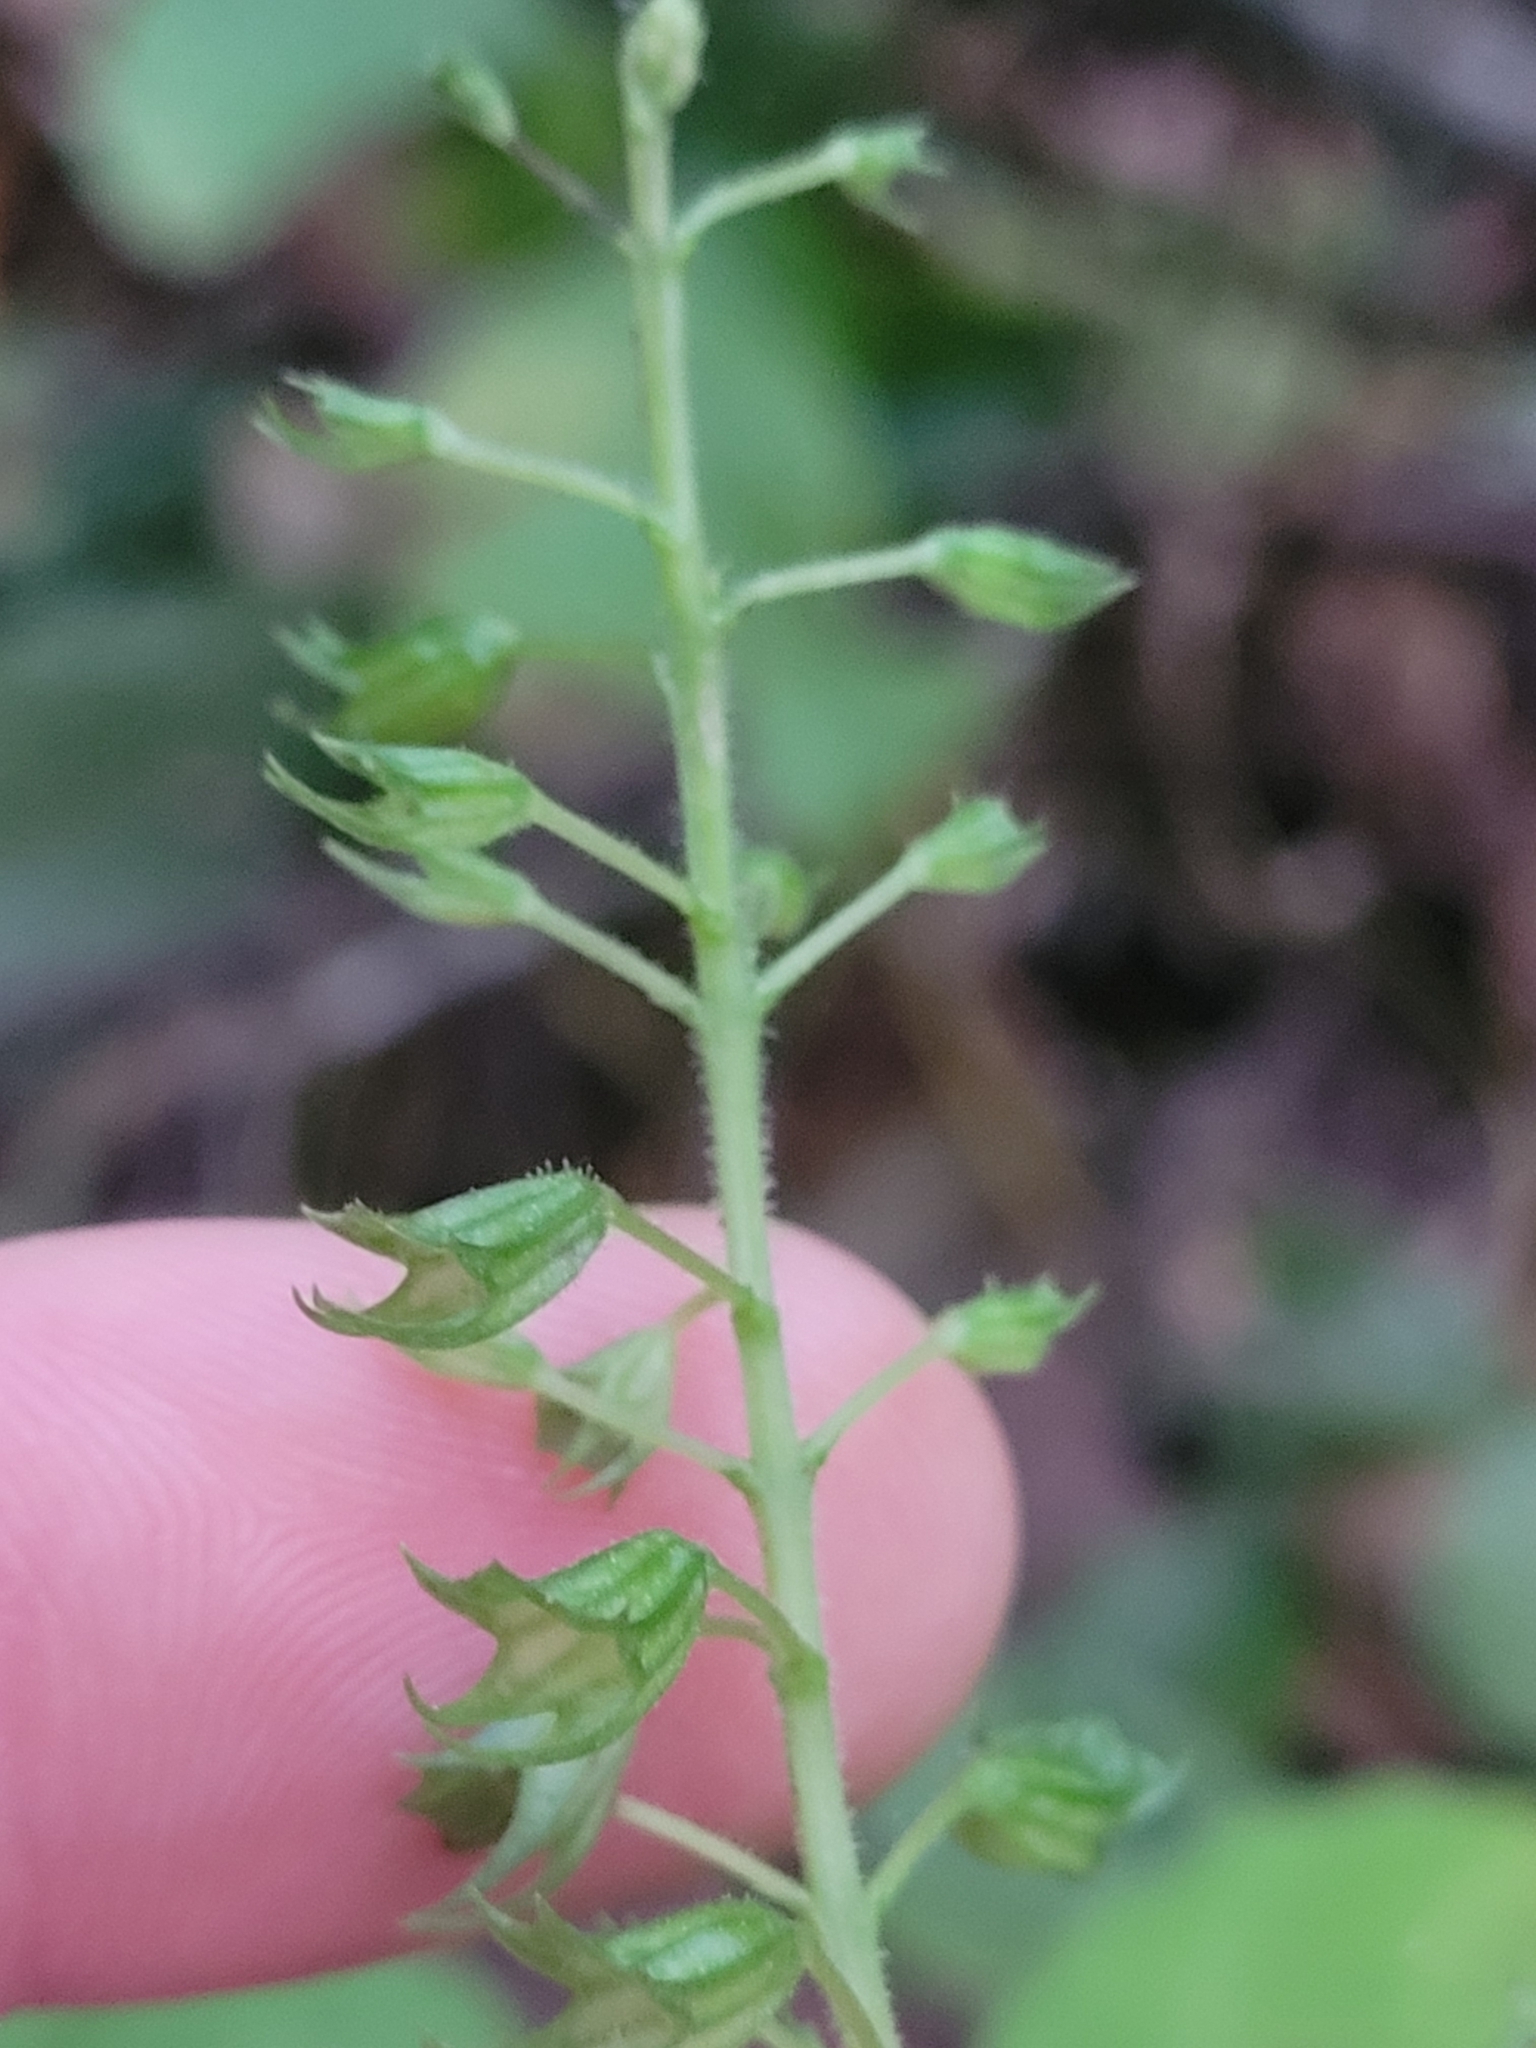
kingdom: Plantae
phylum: Tracheophyta
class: Magnoliopsida
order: Lamiales
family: Lamiaceae
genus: Collinsonia
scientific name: Collinsonia canadensis
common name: Northern horsebalm
